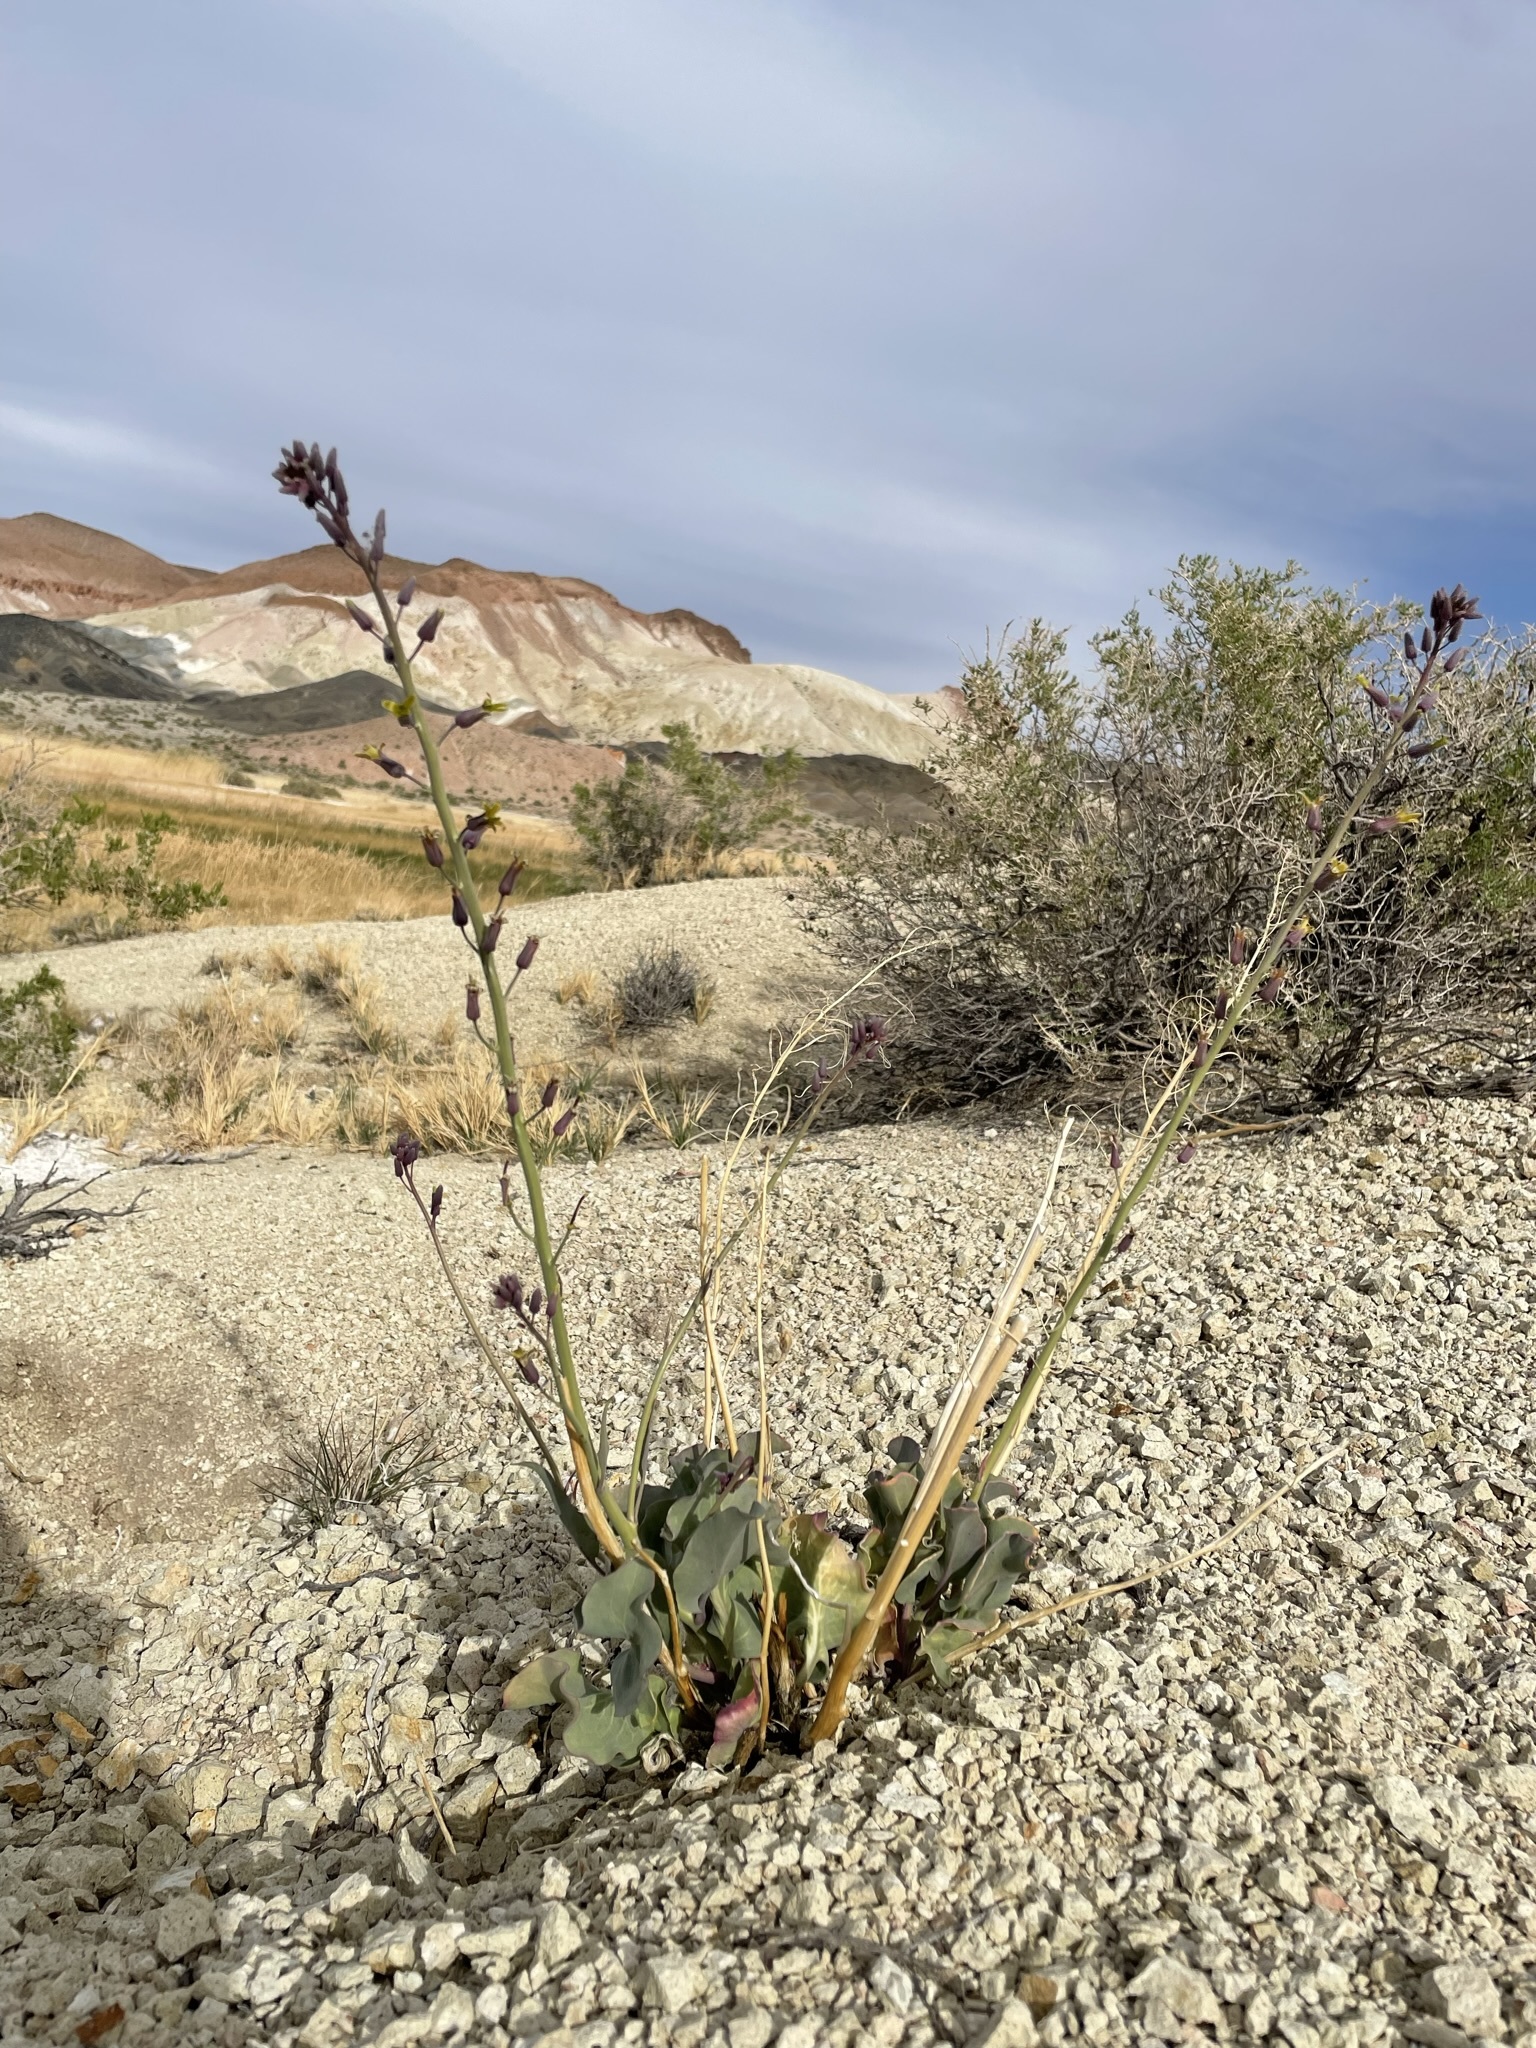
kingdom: Plantae
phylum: Tracheophyta
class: Magnoliopsida
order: Brassicales
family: Brassicaceae
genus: Streptanthus
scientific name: Streptanthus glaucus
